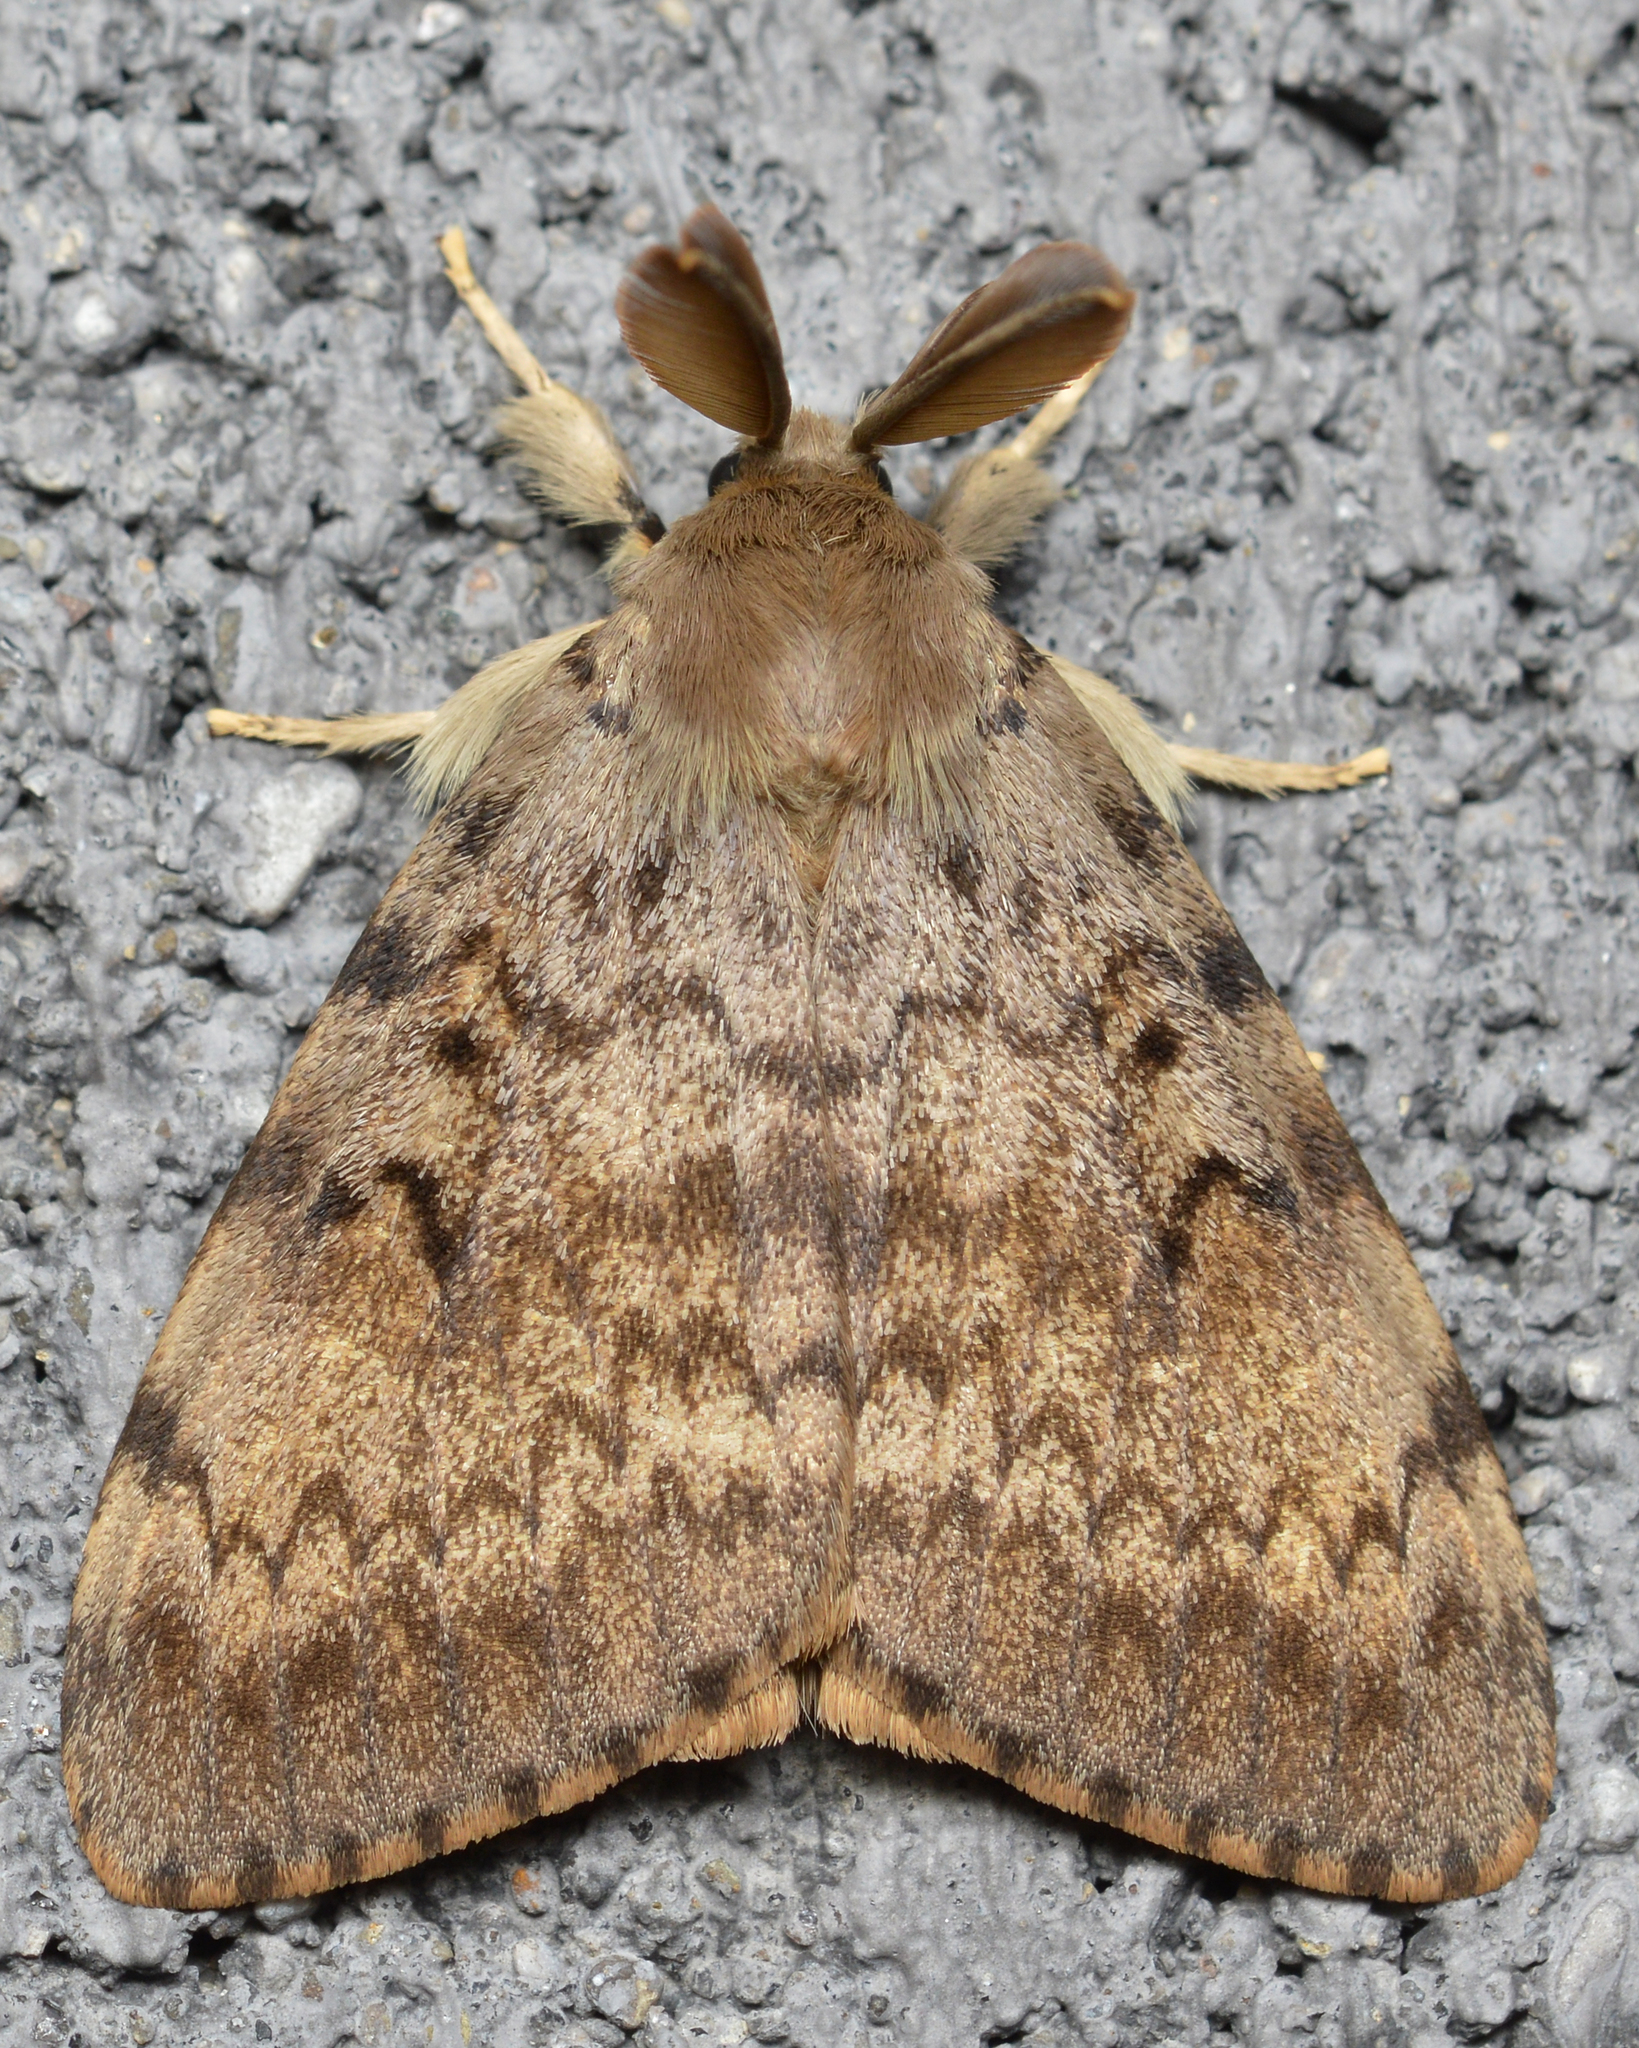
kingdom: Animalia
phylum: Arthropoda
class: Insecta
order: Lepidoptera
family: Erebidae
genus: Lymantria
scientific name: Lymantria dispar
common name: Gypsy moth
